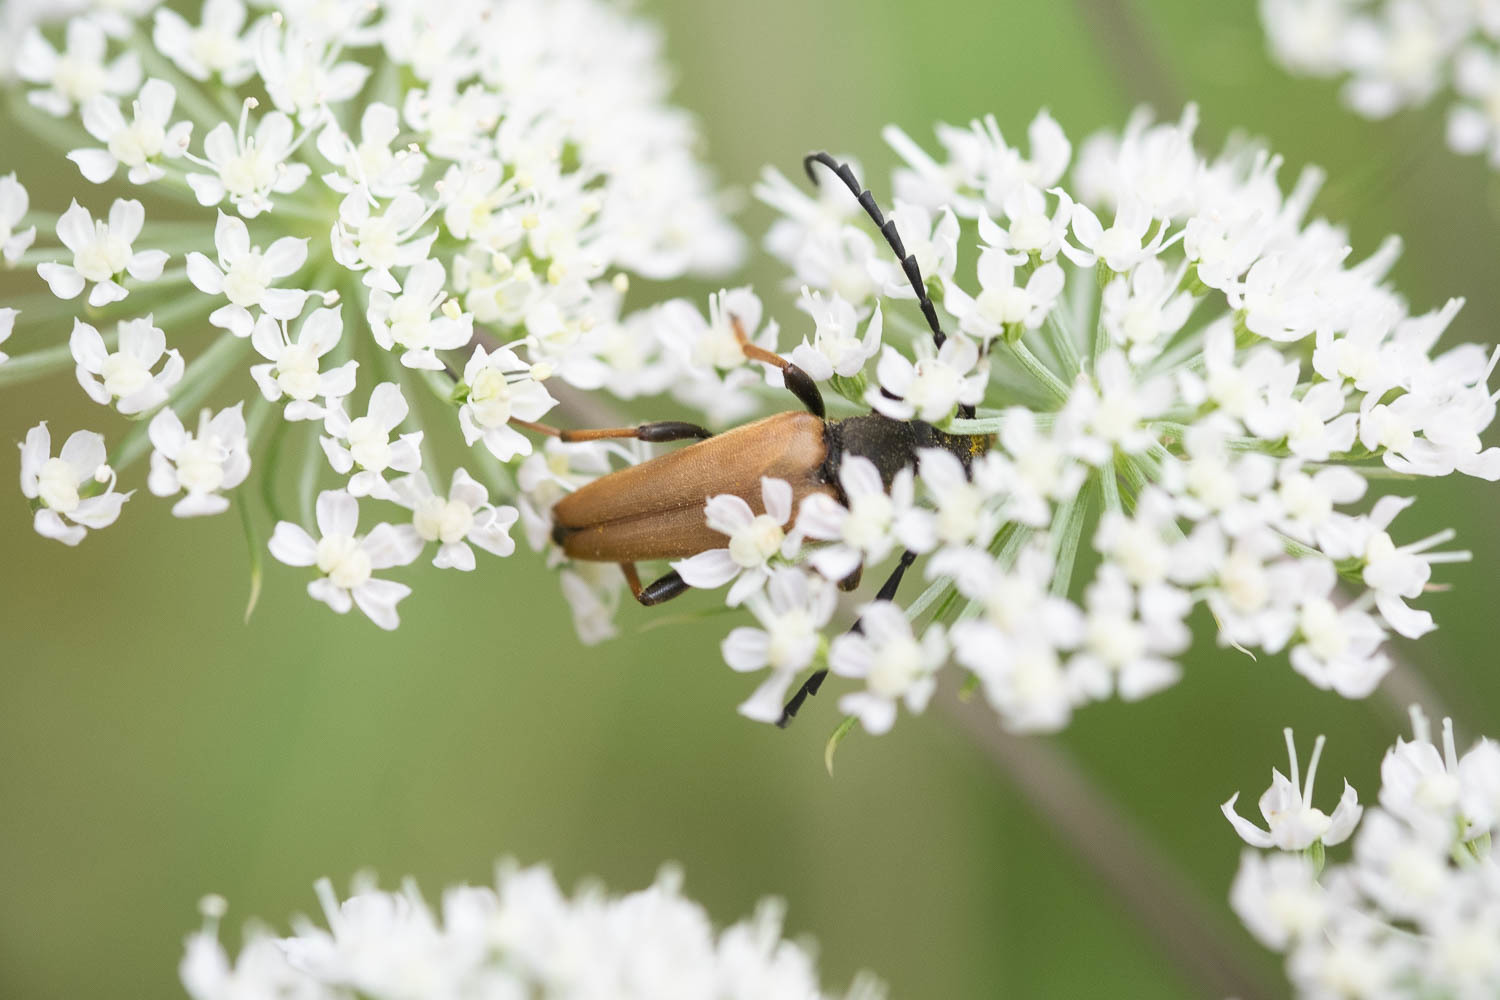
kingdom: Animalia
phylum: Arthropoda
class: Insecta
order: Coleoptera
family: Cerambycidae
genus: Stictoleptura
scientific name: Stictoleptura rubra
